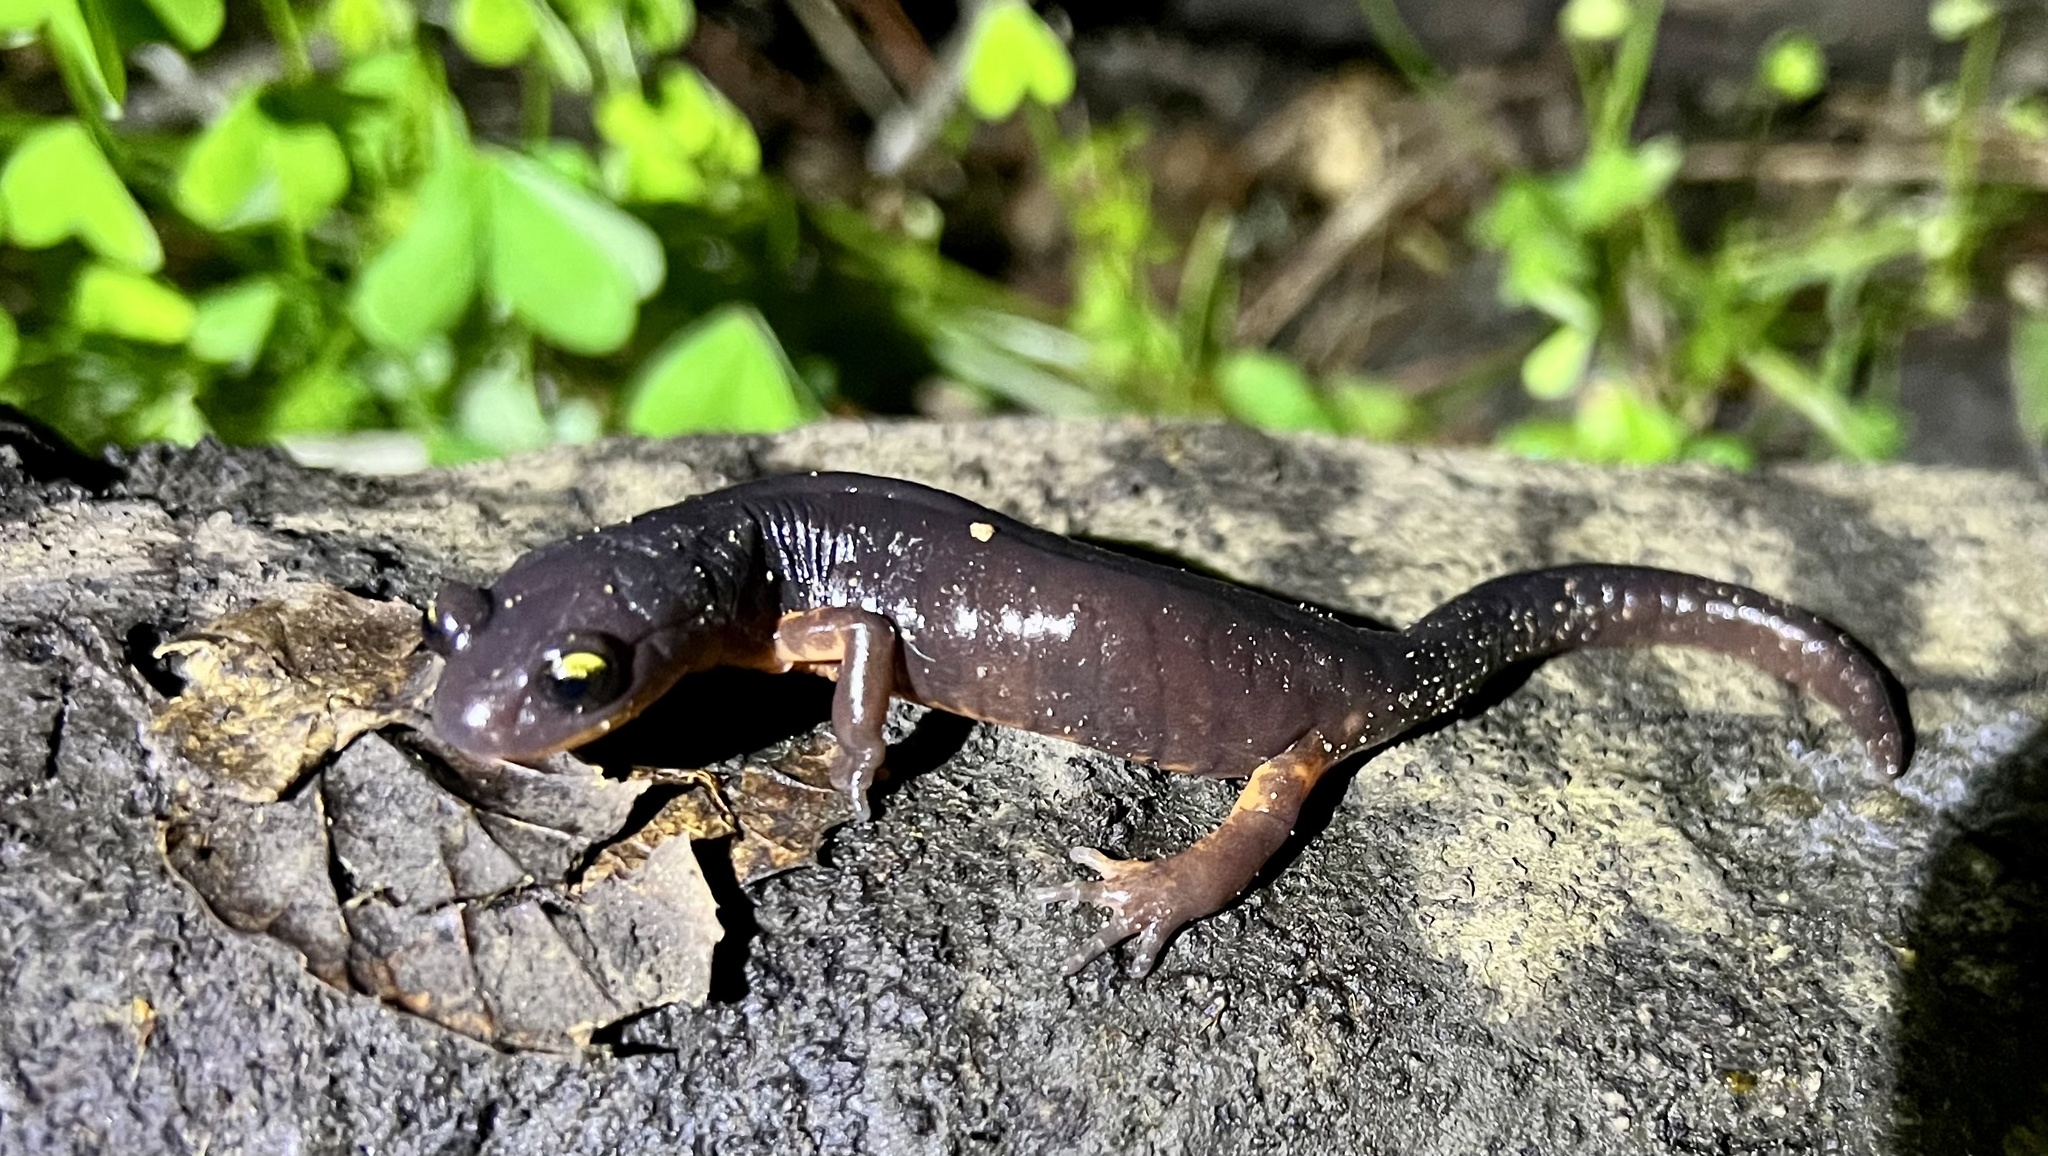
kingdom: Animalia
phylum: Chordata
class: Amphibia
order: Caudata
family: Plethodontidae
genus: Ensatina
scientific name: Ensatina eschscholtzii
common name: Ensatina
